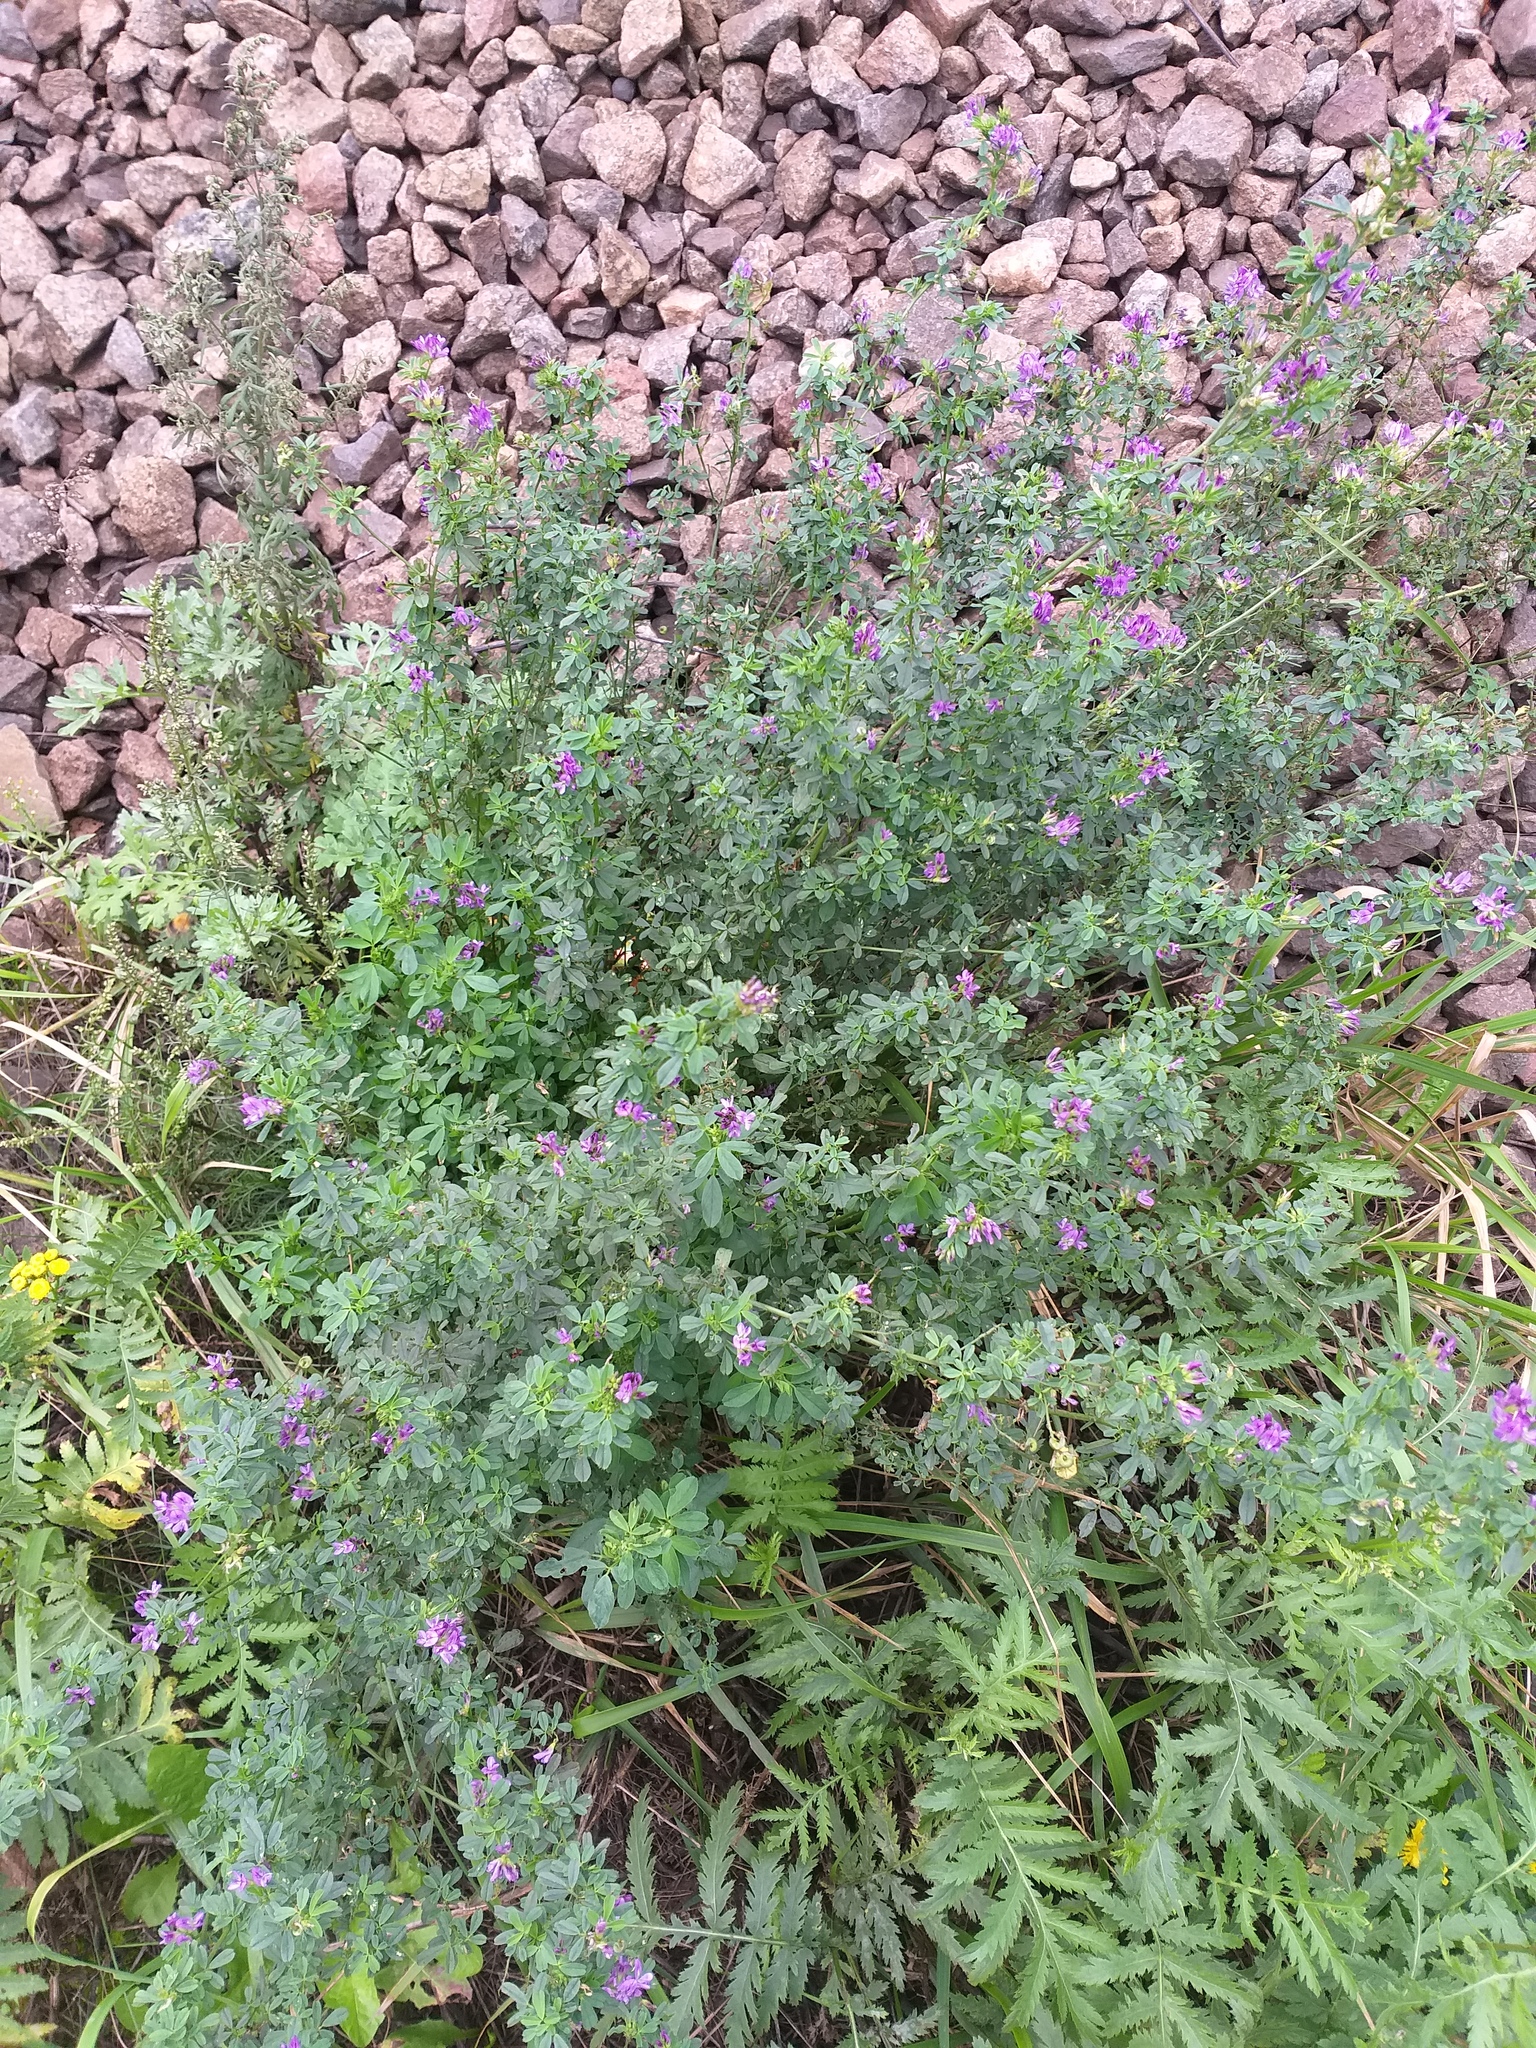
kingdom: Plantae
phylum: Tracheophyta
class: Magnoliopsida
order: Fabales
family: Fabaceae
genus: Medicago
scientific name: Medicago sativa
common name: Alfalfa
